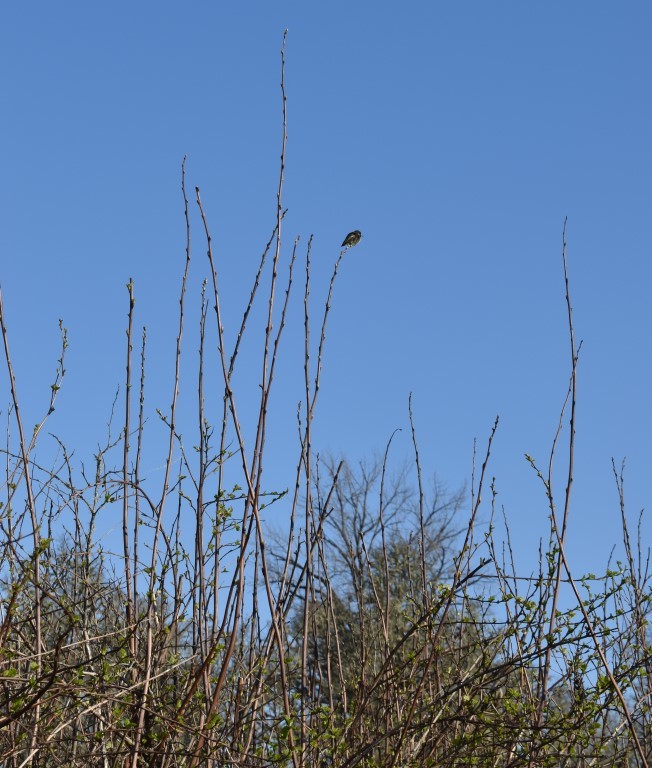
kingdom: Animalia
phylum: Chordata
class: Aves
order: Apodiformes
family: Trochilidae
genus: Calypte
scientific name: Calypte anna
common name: Anna's hummingbird
